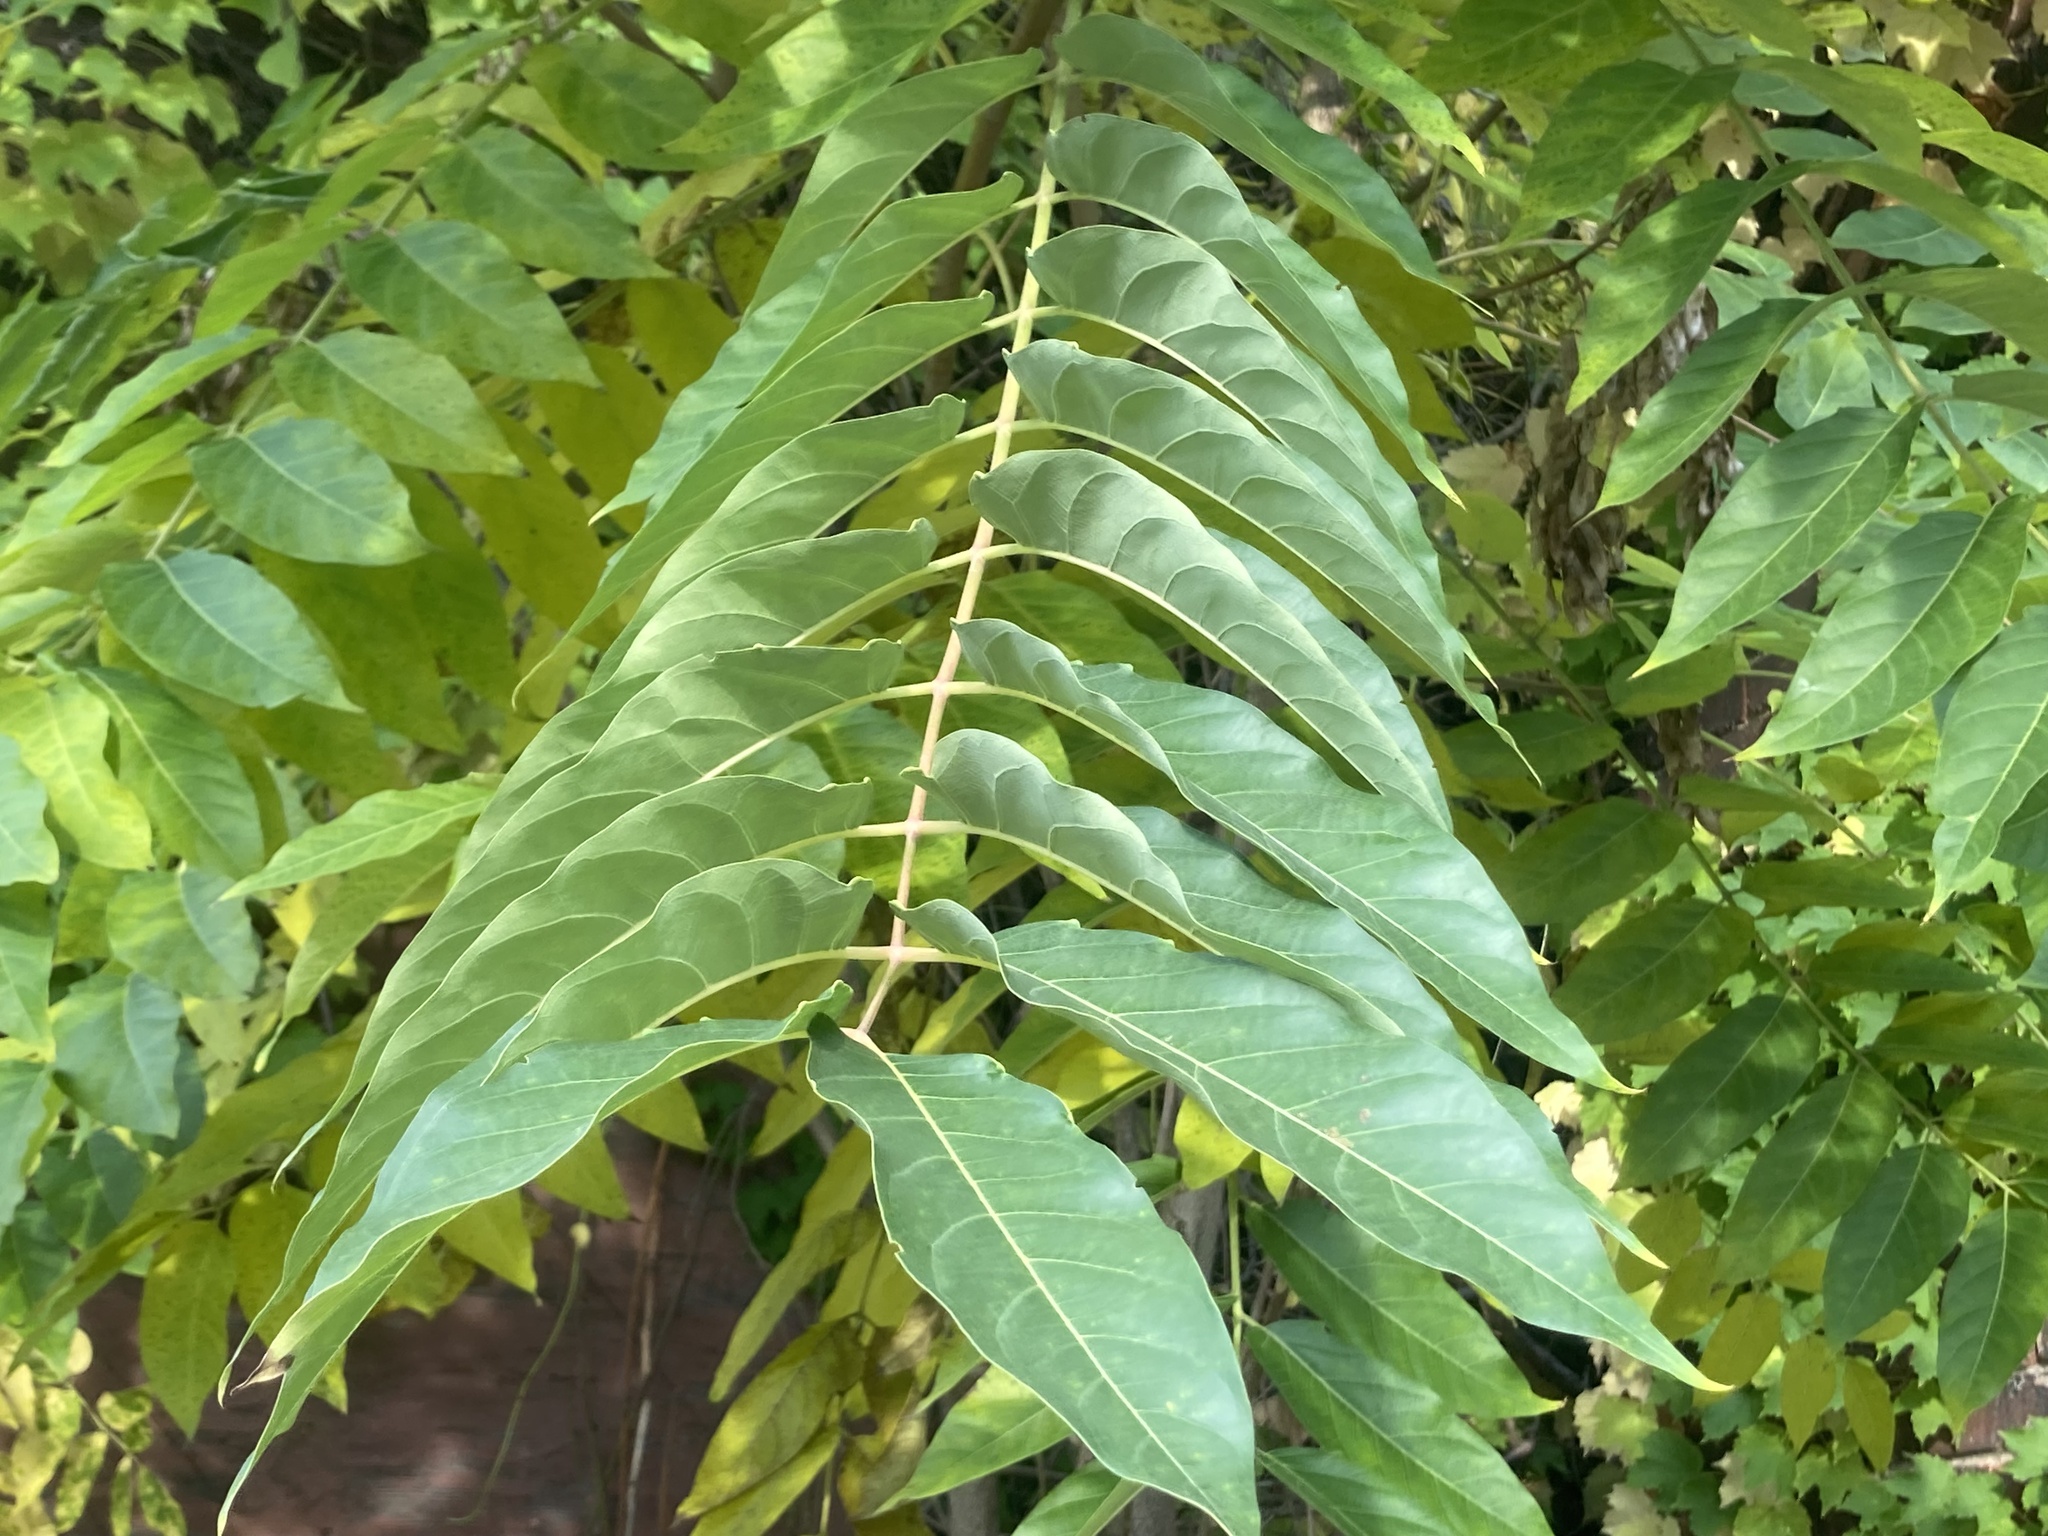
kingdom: Plantae
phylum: Tracheophyta
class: Magnoliopsida
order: Sapindales
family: Simaroubaceae
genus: Ailanthus
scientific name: Ailanthus altissima
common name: Tree-of-heaven
